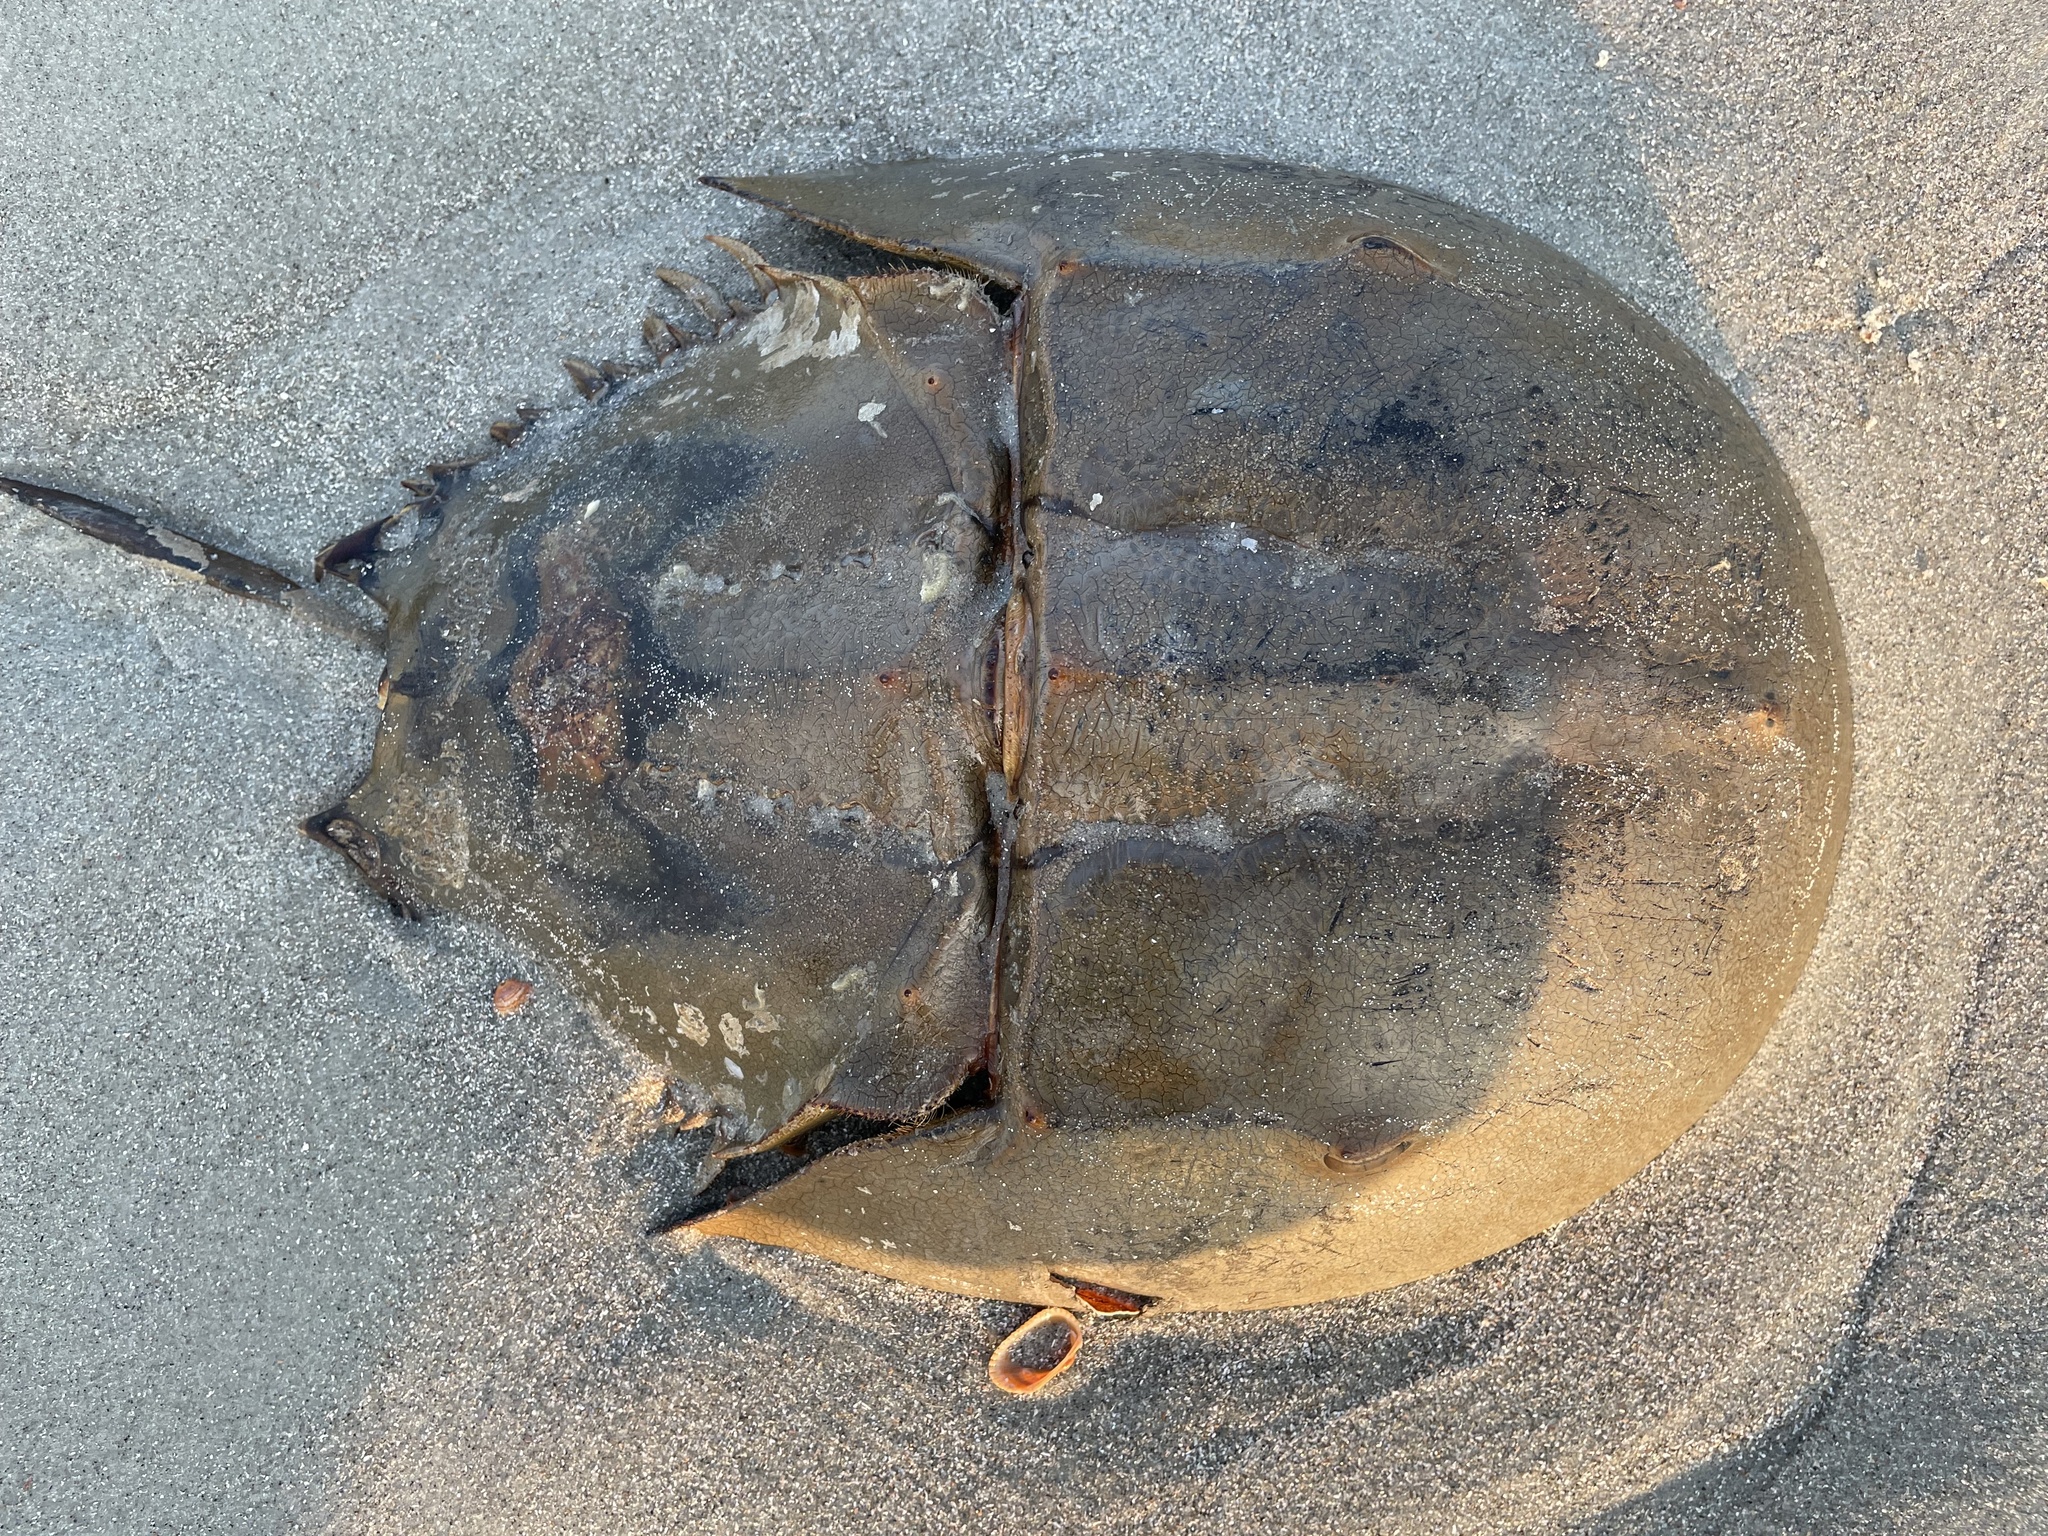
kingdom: Animalia
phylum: Arthropoda
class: Merostomata
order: Xiphosurida
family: Limulidae
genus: Limulus
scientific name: Limulus polyphemus
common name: Horseshoe crab
